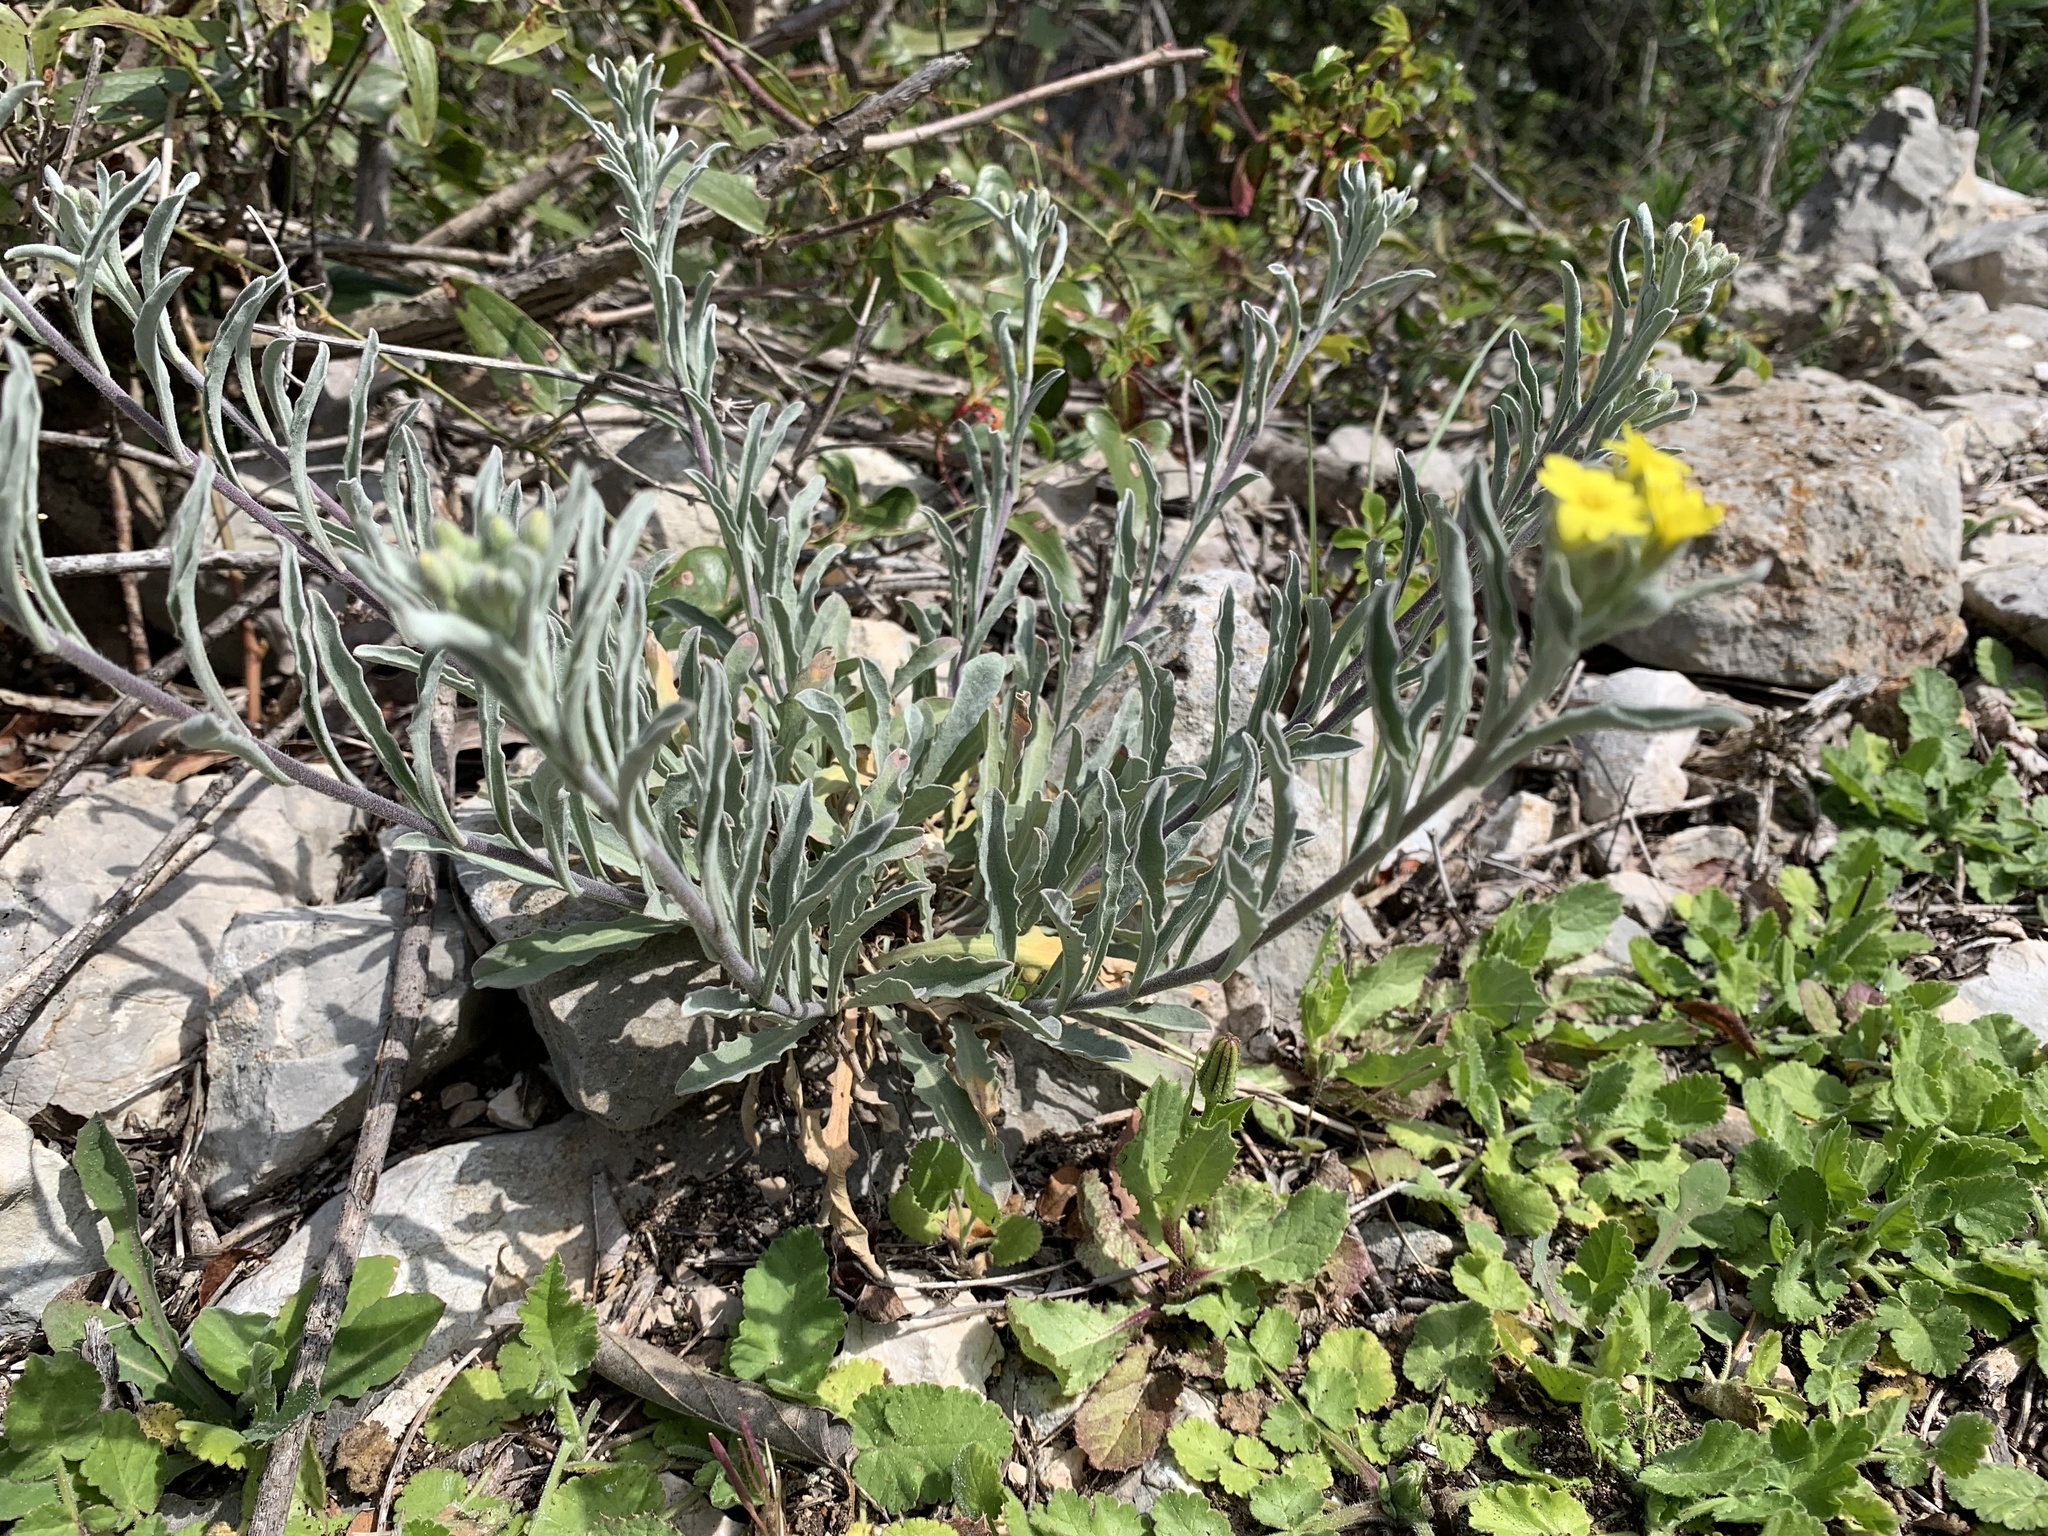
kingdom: Plantae
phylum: Tracheophyta
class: Magnoliopsida
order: Brassicales
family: Brassicaceae
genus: Aurinia
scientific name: Aurinia saxatilis
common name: Golden-tuft alyssum
